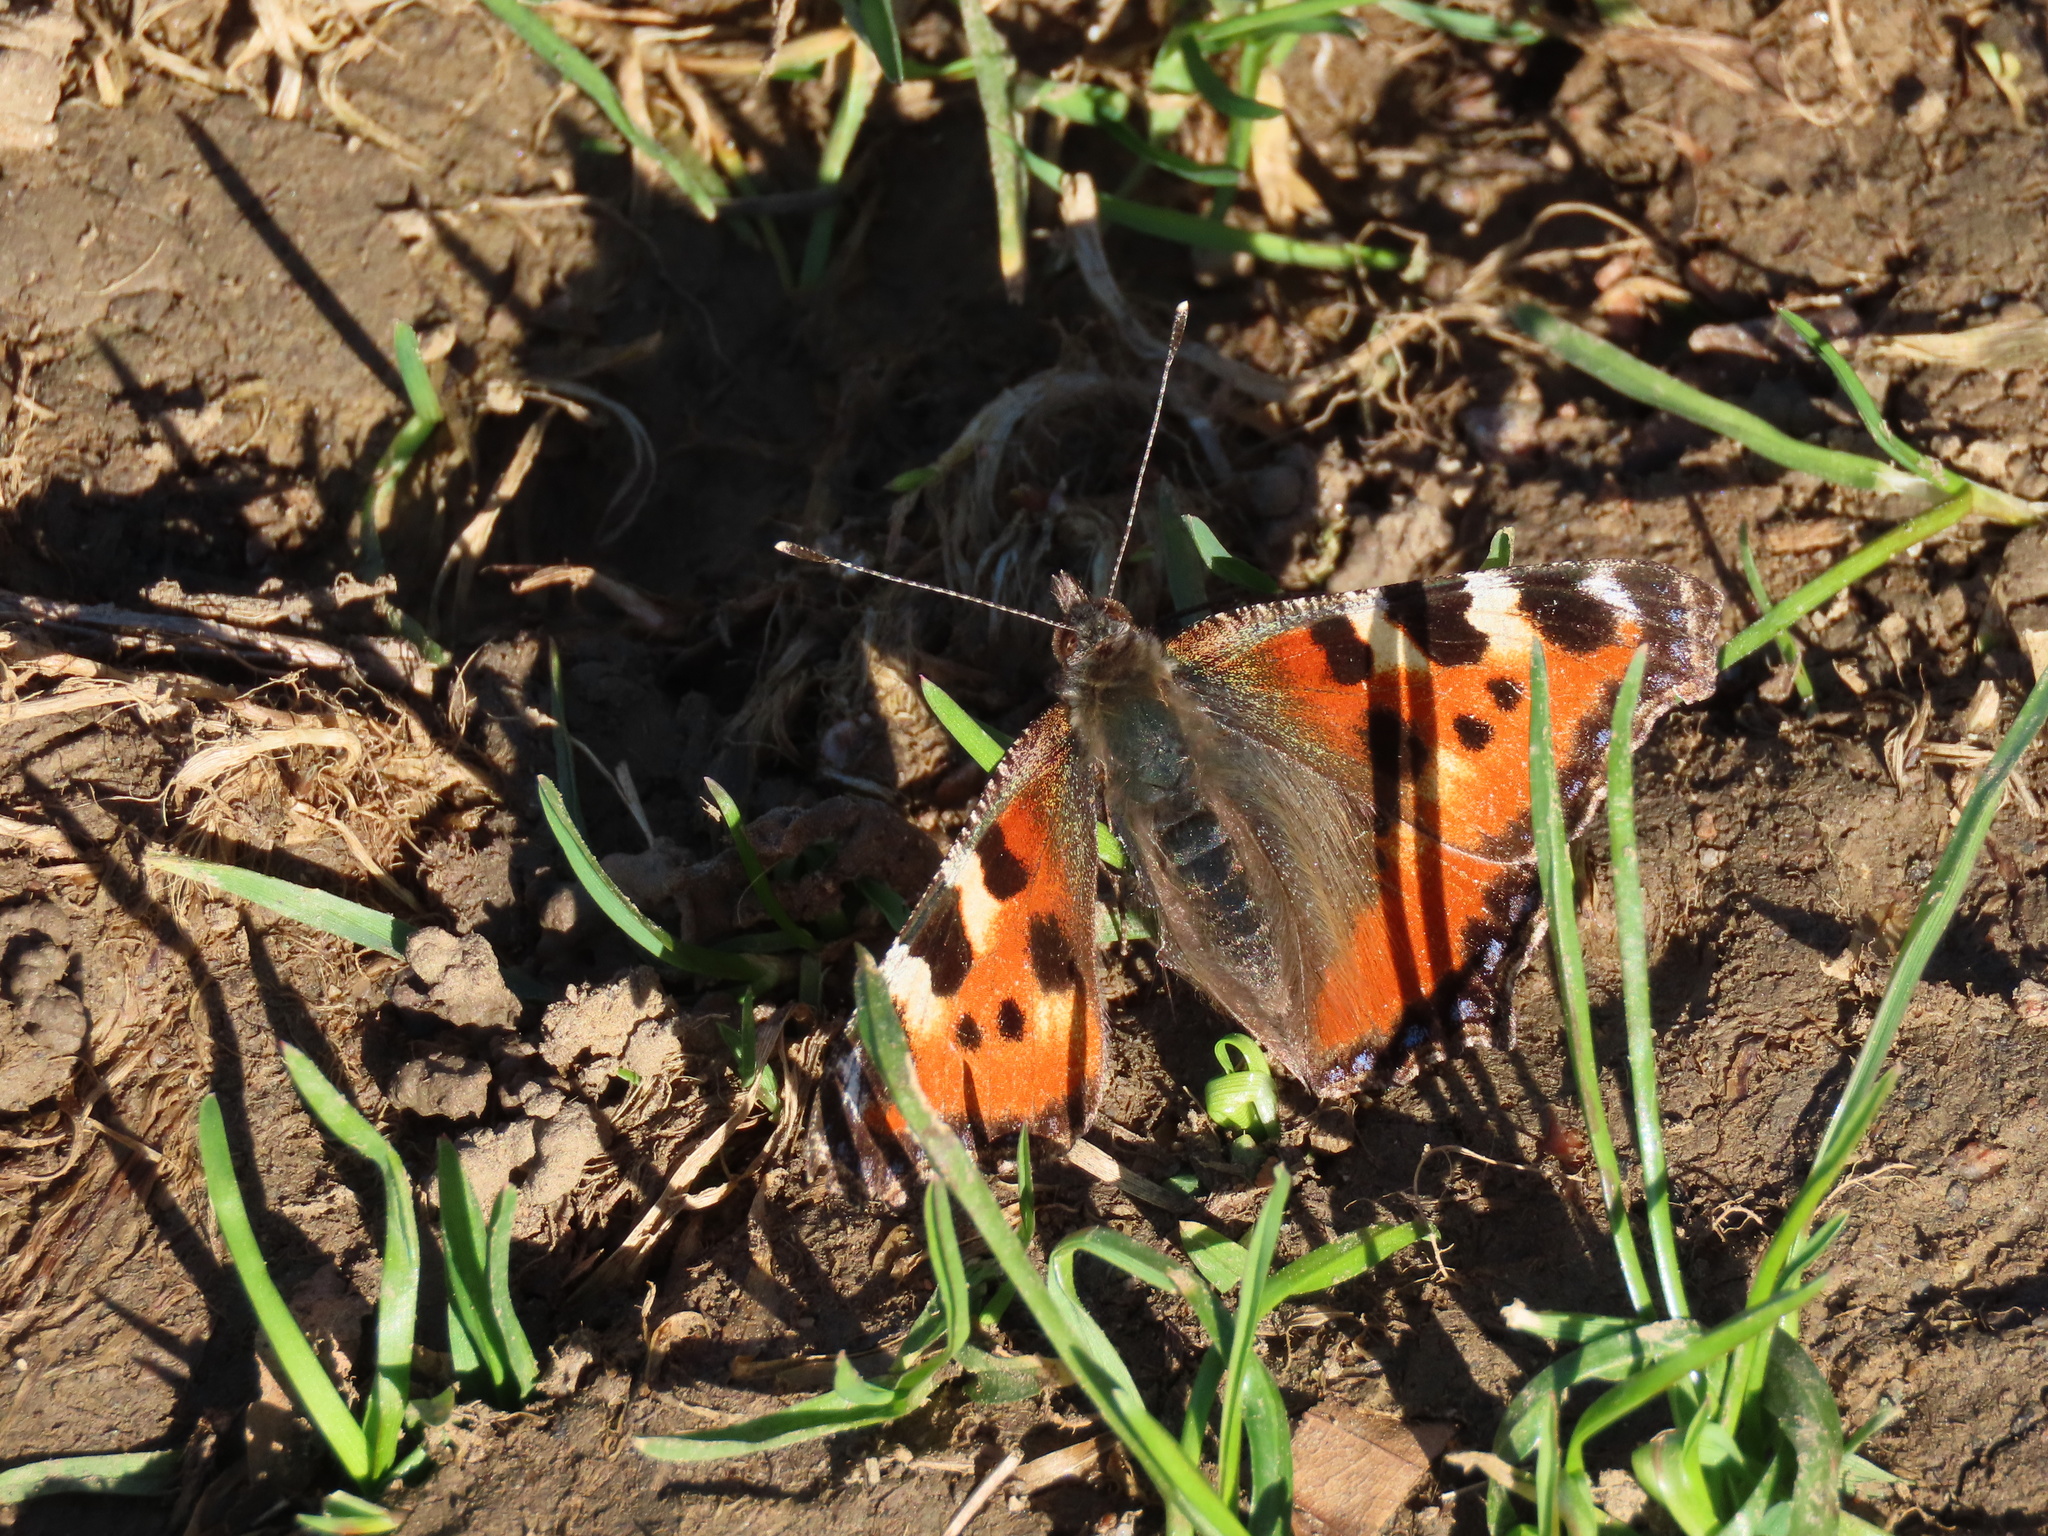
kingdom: Animalia
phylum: Arthropoda
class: Insecta
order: Lepidoptera
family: Nymphalidae
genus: Aglais
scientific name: Aglais urticae
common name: Small tortoiseshell
